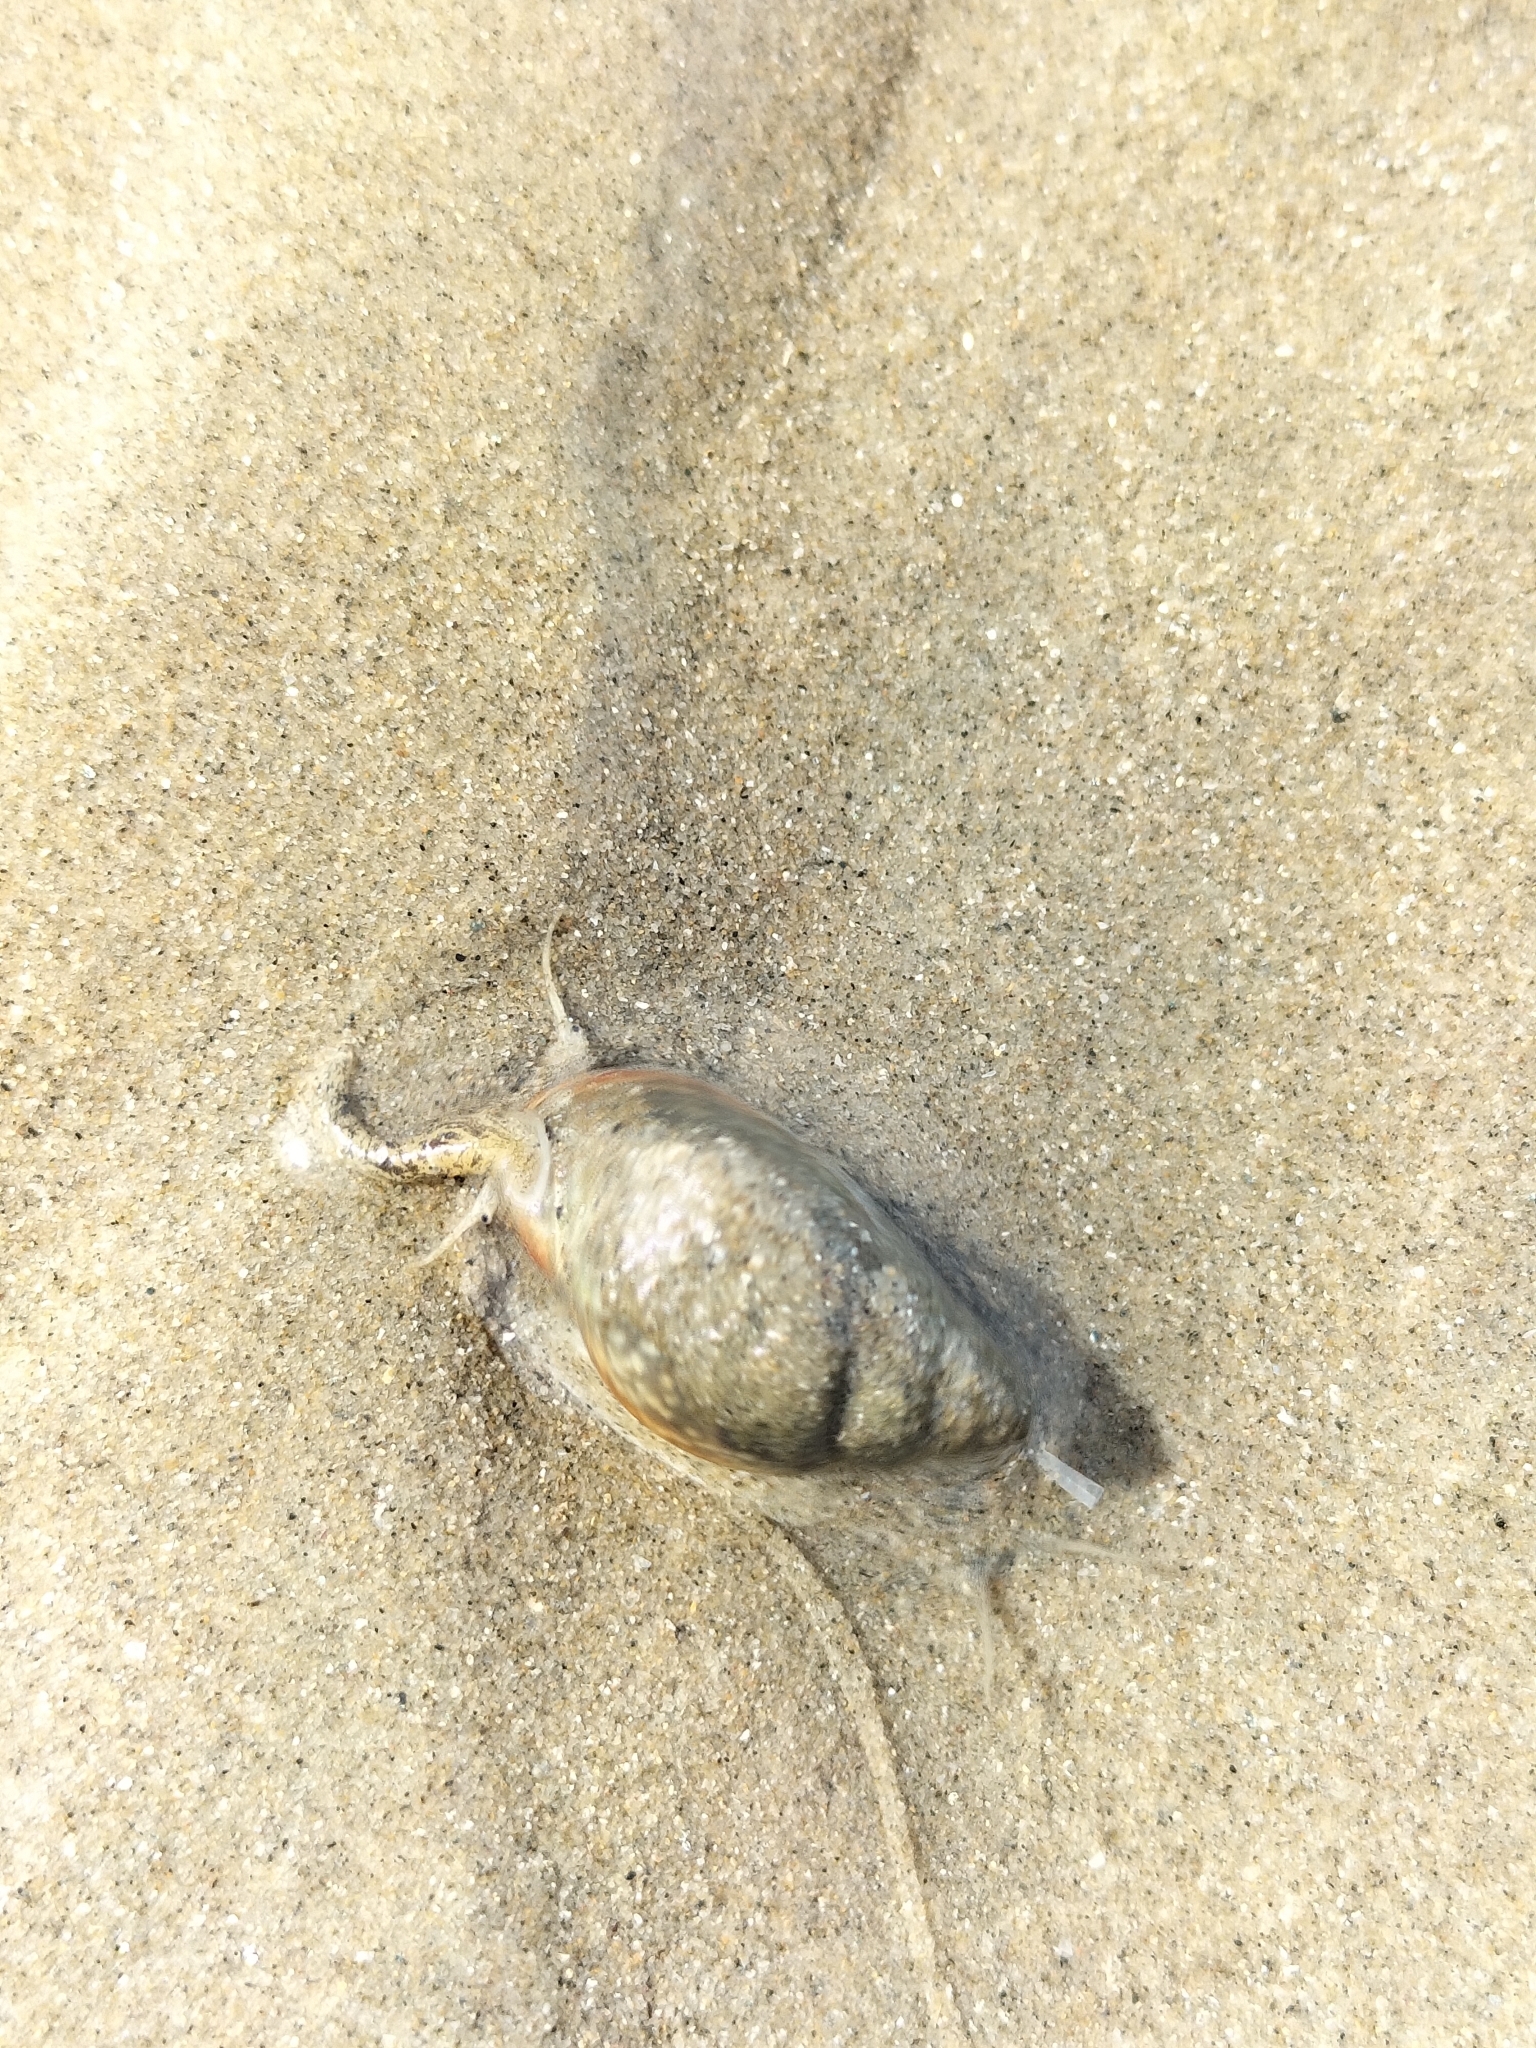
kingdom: Animalia
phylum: Mollusca
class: Gastropoda
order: Neogastropoda
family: Nassariidae
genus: Nassarius
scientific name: Nassarius dorsatus
